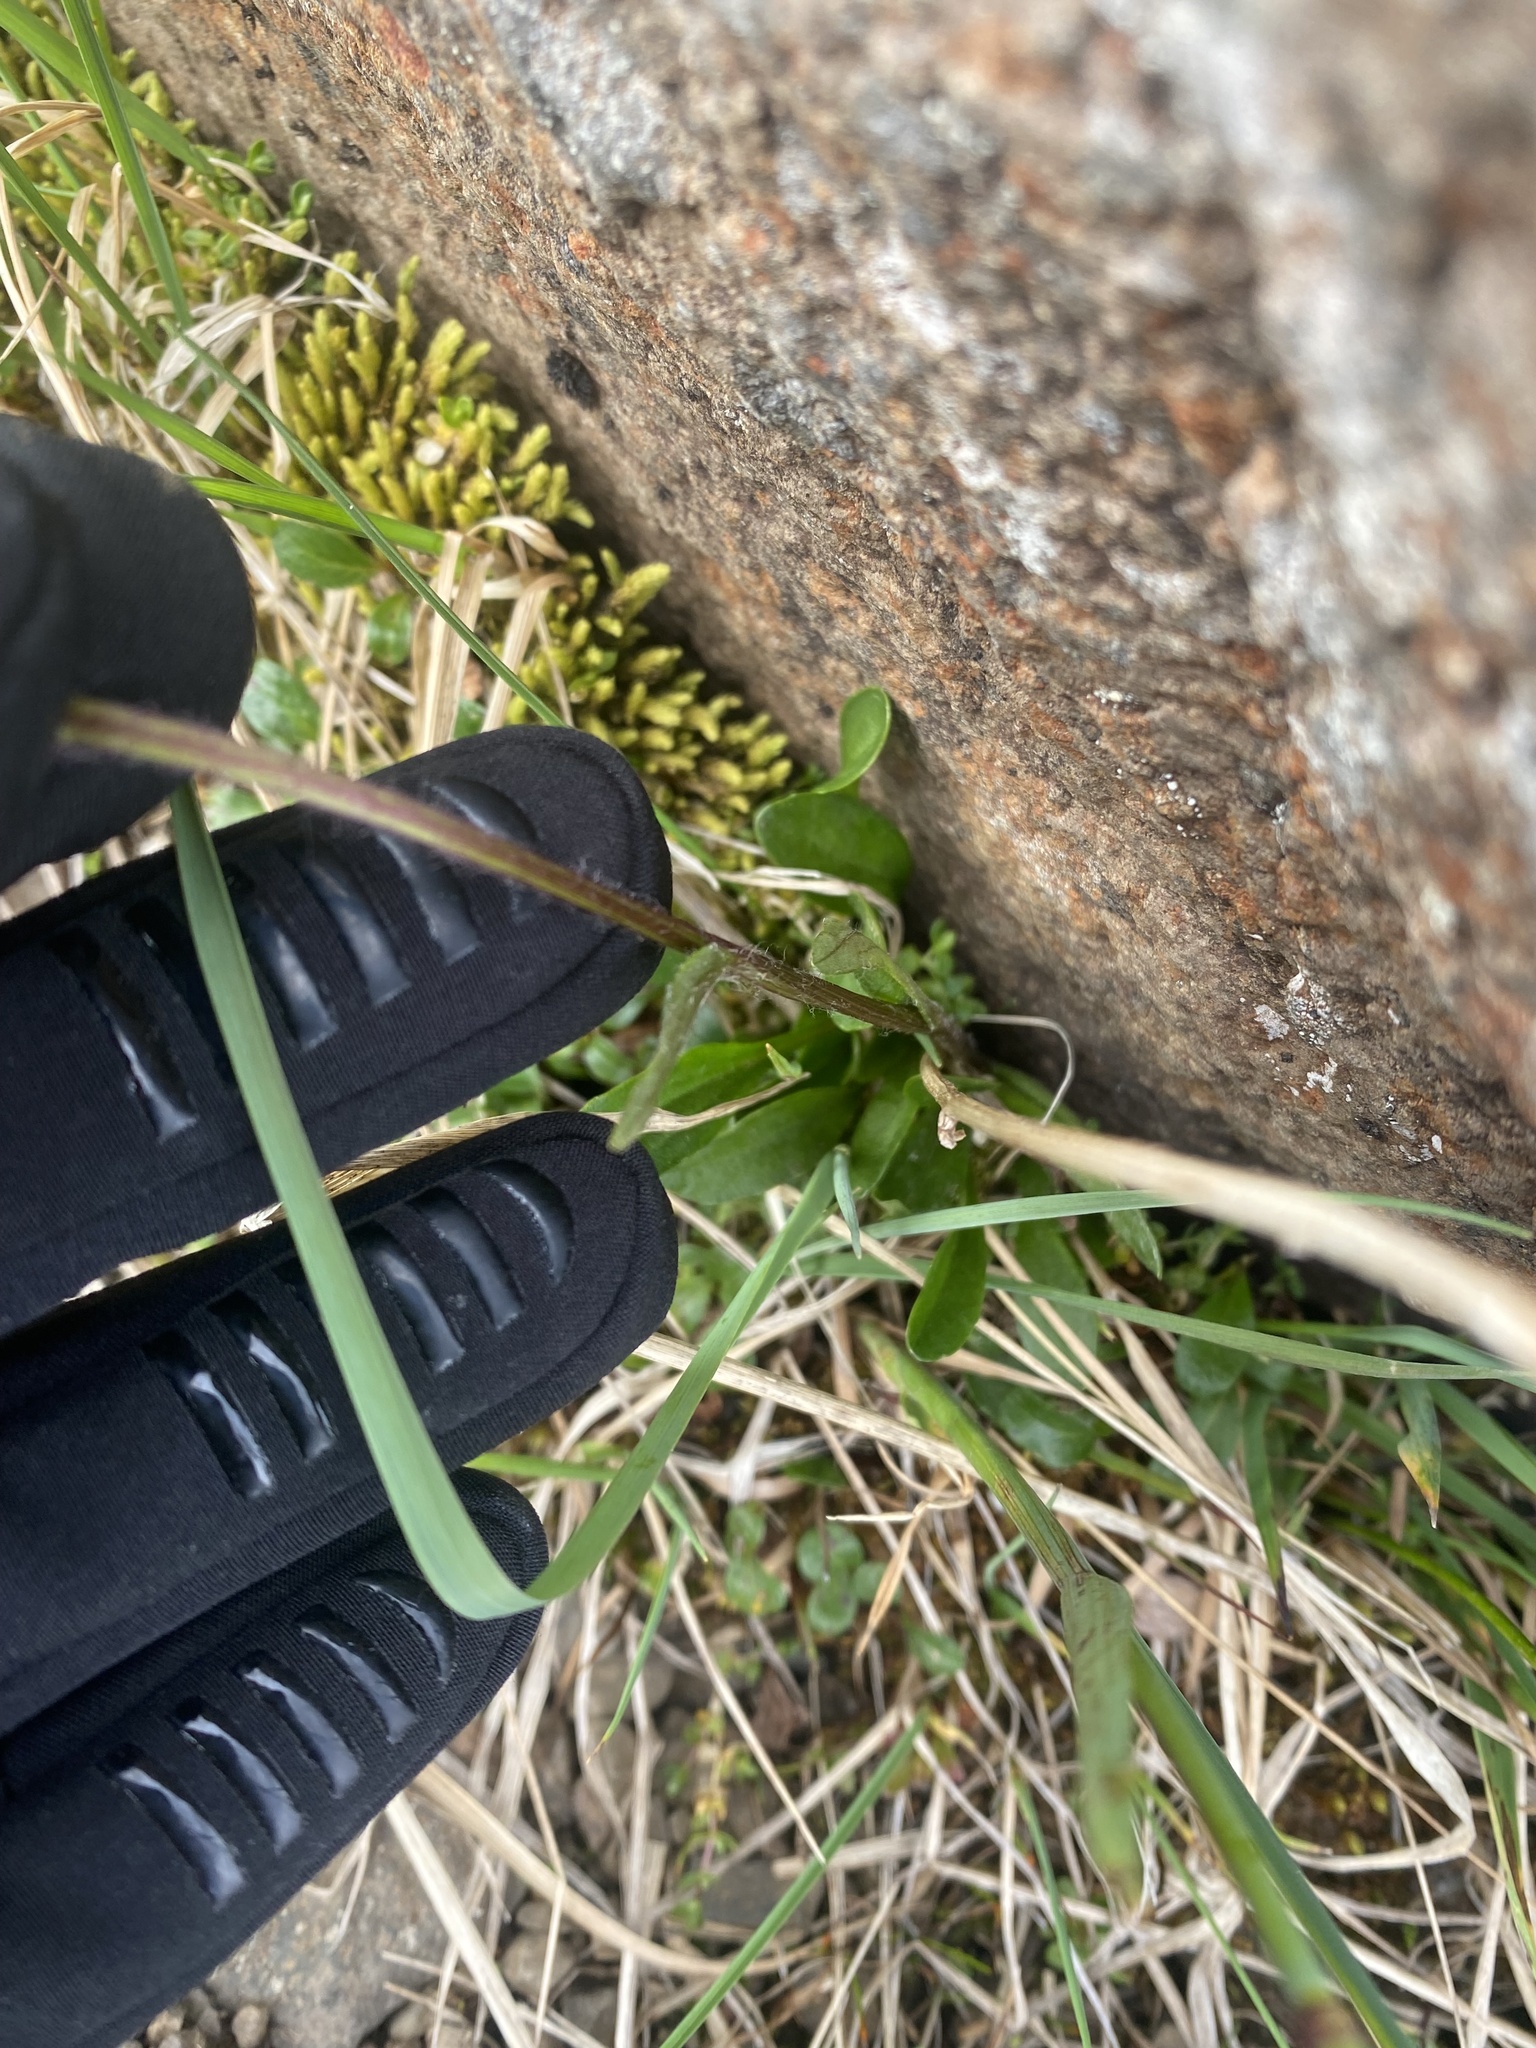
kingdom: Plantae
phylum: Tracheophyta
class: Magnoliopsida
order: Asterales
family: Asteraceae
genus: Tephroseris
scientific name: Tephroseris integrifolia
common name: Field fleawort
